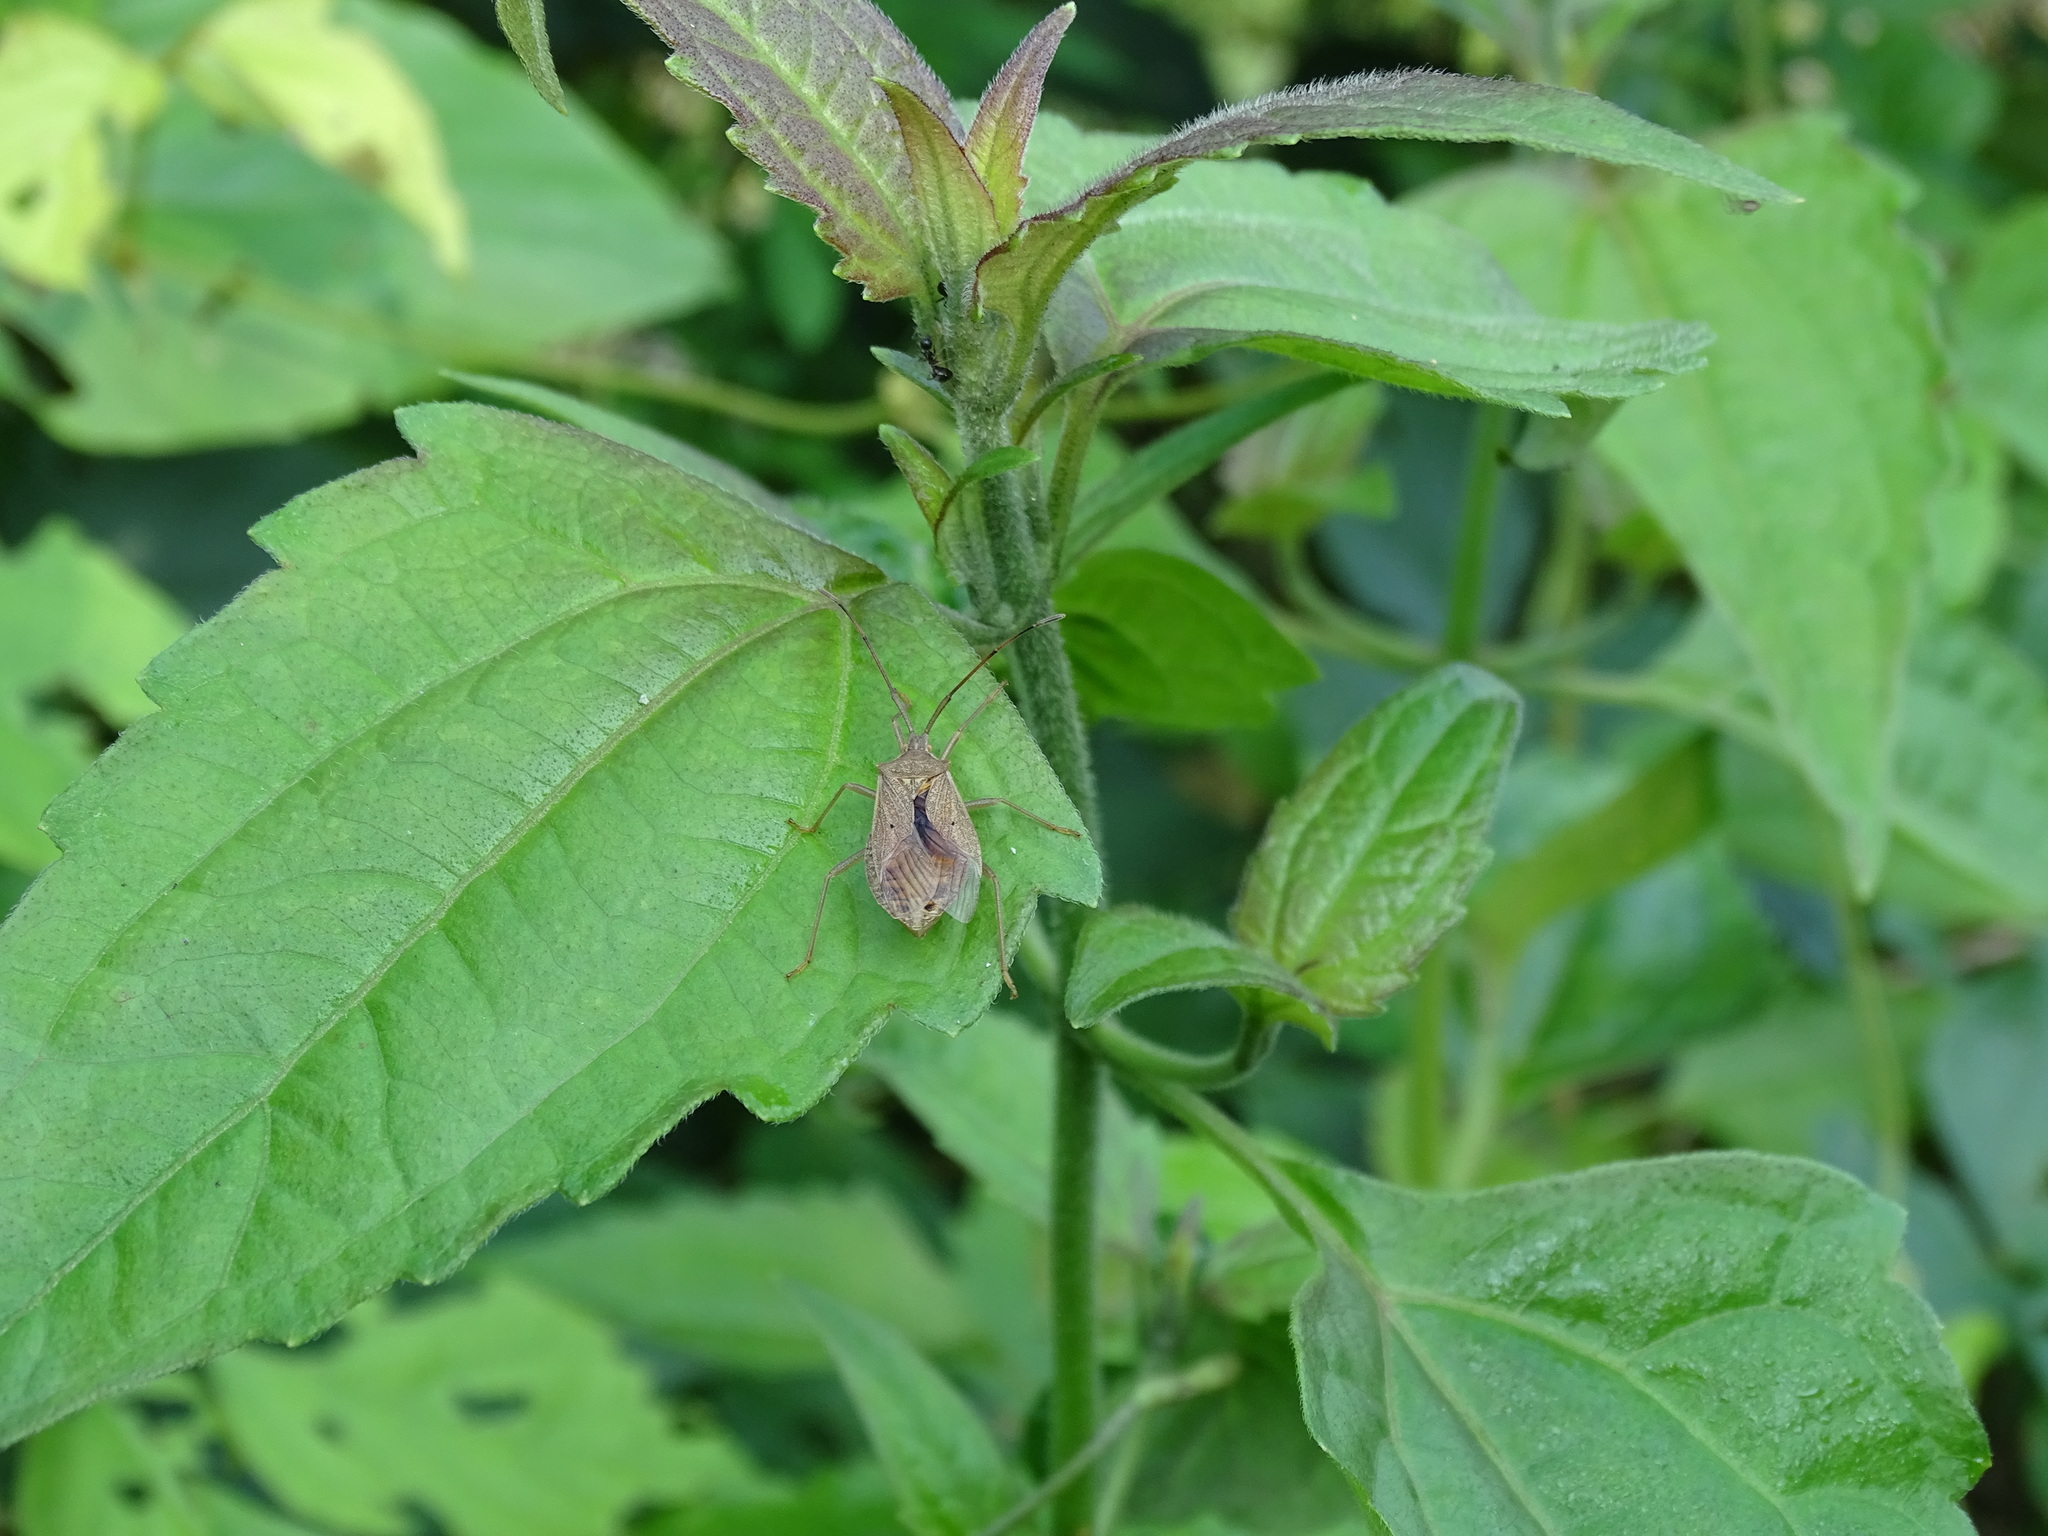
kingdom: Animalia
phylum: Arthropoda
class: Insecta
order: Hemiptera
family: Coreidae
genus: Homoeocerus
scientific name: Homoeocerus unipunctatus
